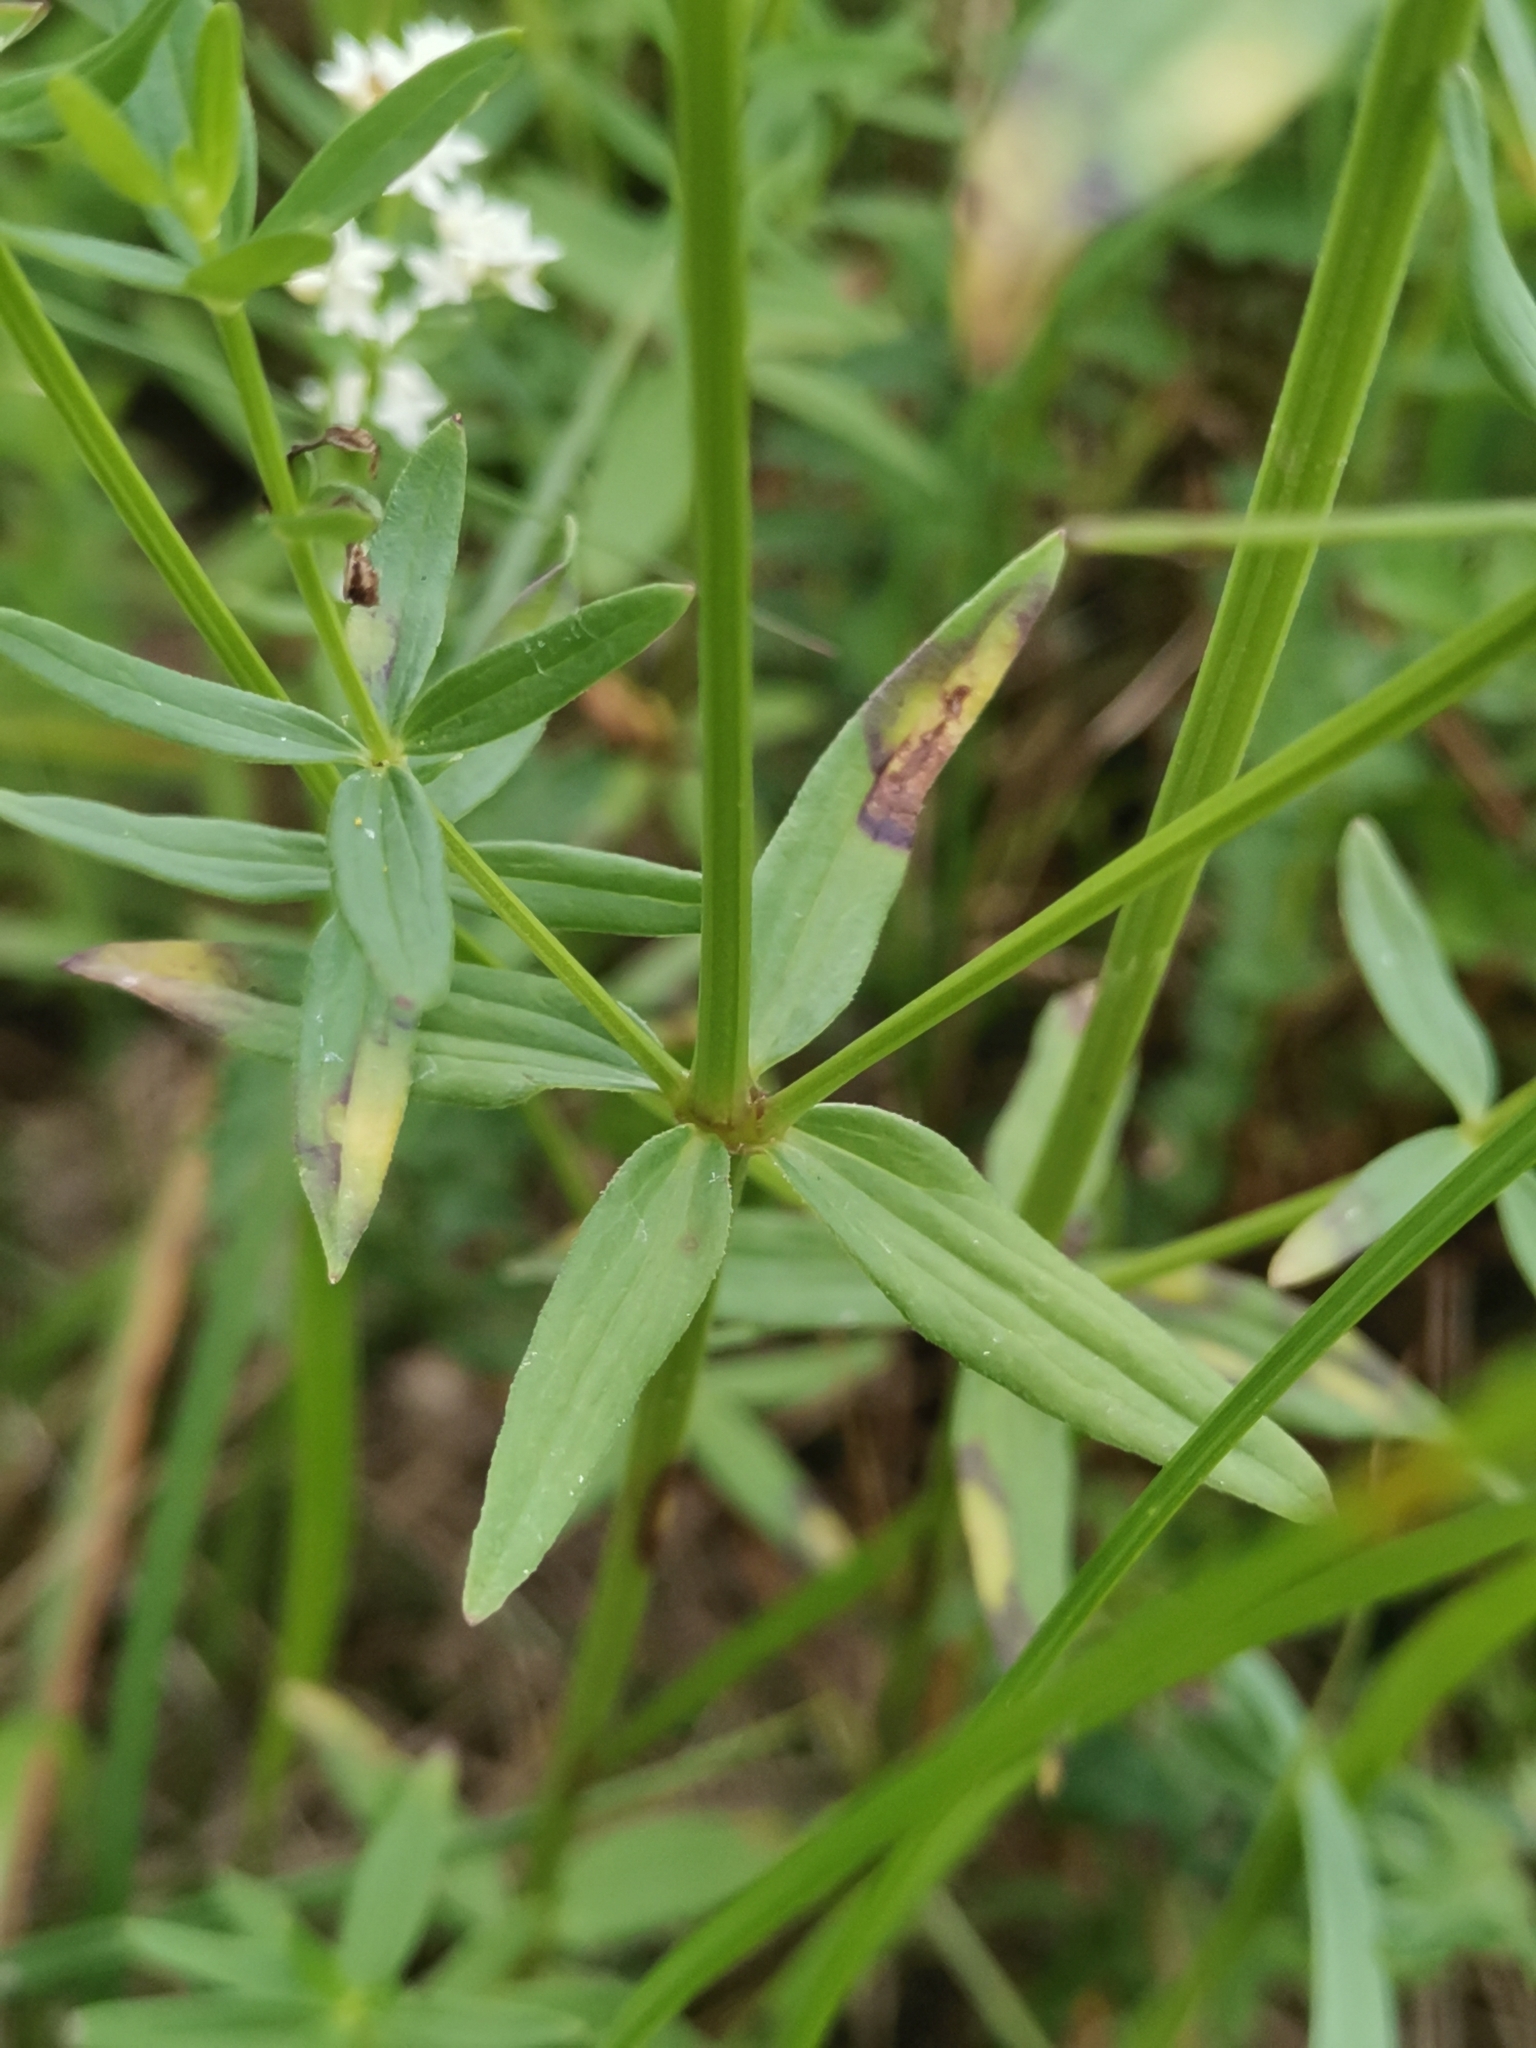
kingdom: Plantae
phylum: Tracheophyta
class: Magnoliopsida
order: Gentianales
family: Rubiaceae
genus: Galium
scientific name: Galium boreale
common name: Northern bedstraw
